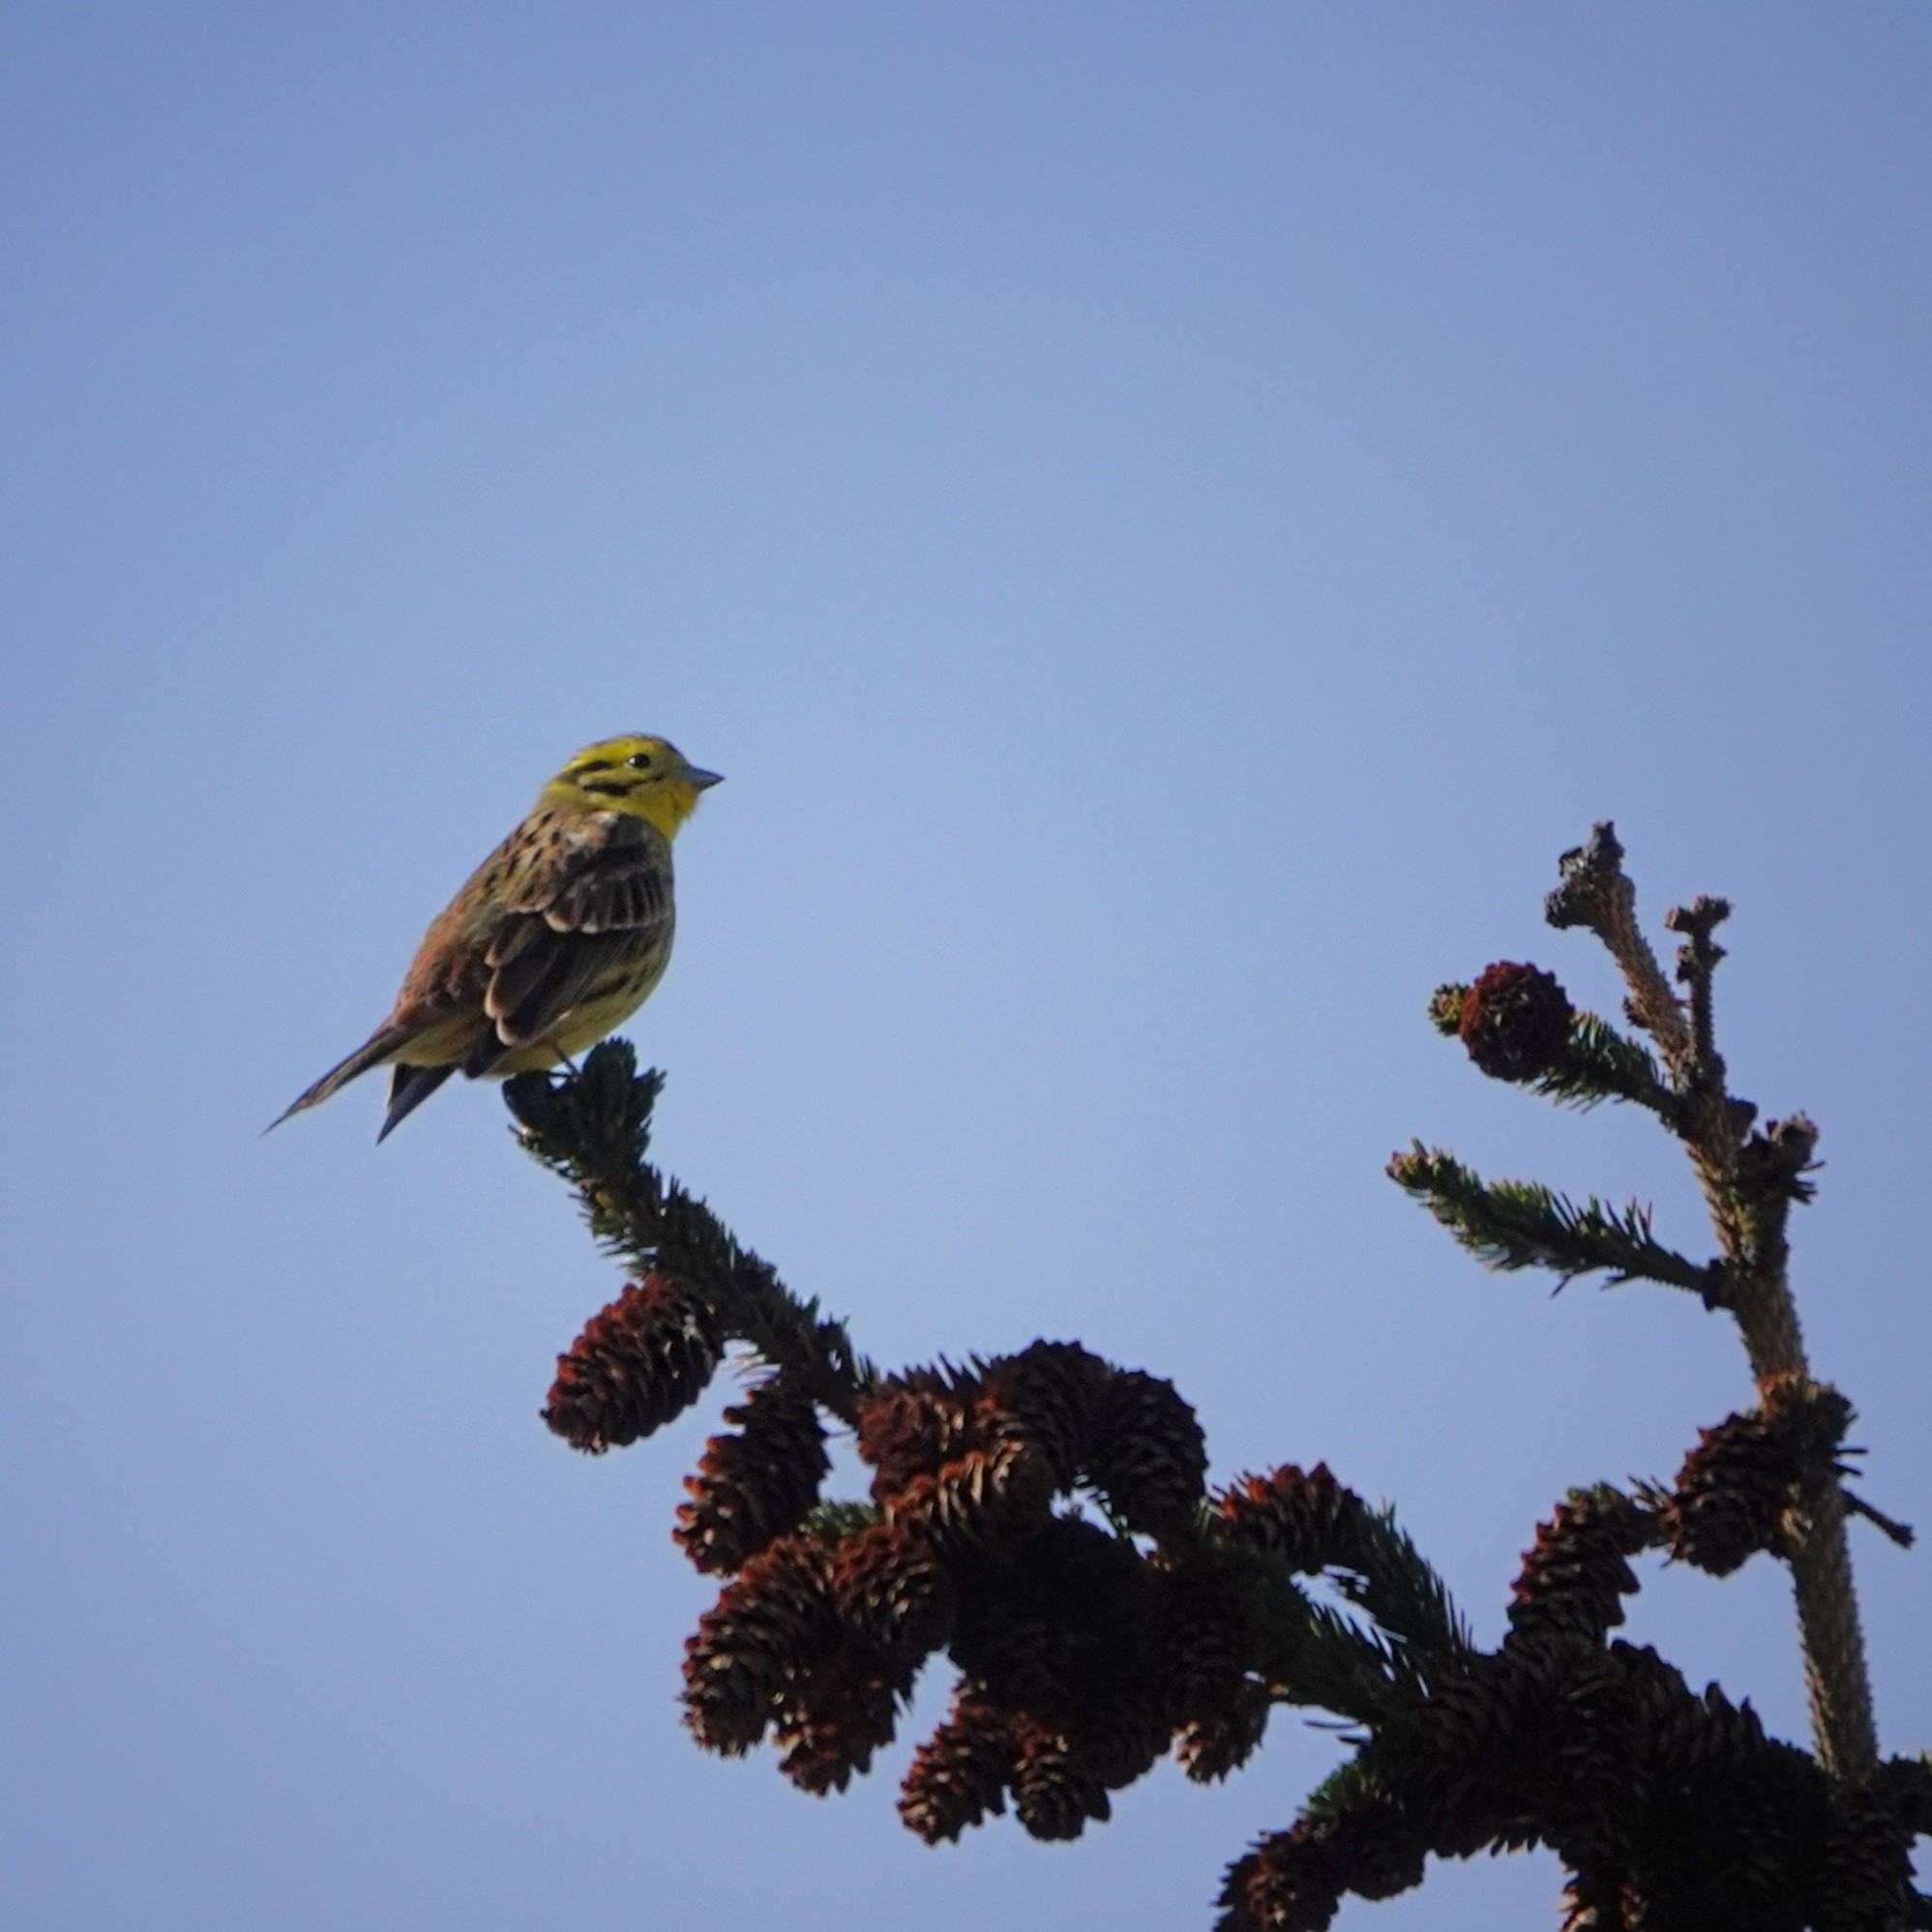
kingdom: Animalia
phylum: Chordata
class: Aves
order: Passeriformes
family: Emberizidae
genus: Emberiza
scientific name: Emberiza citrinella
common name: Yellowhammer
